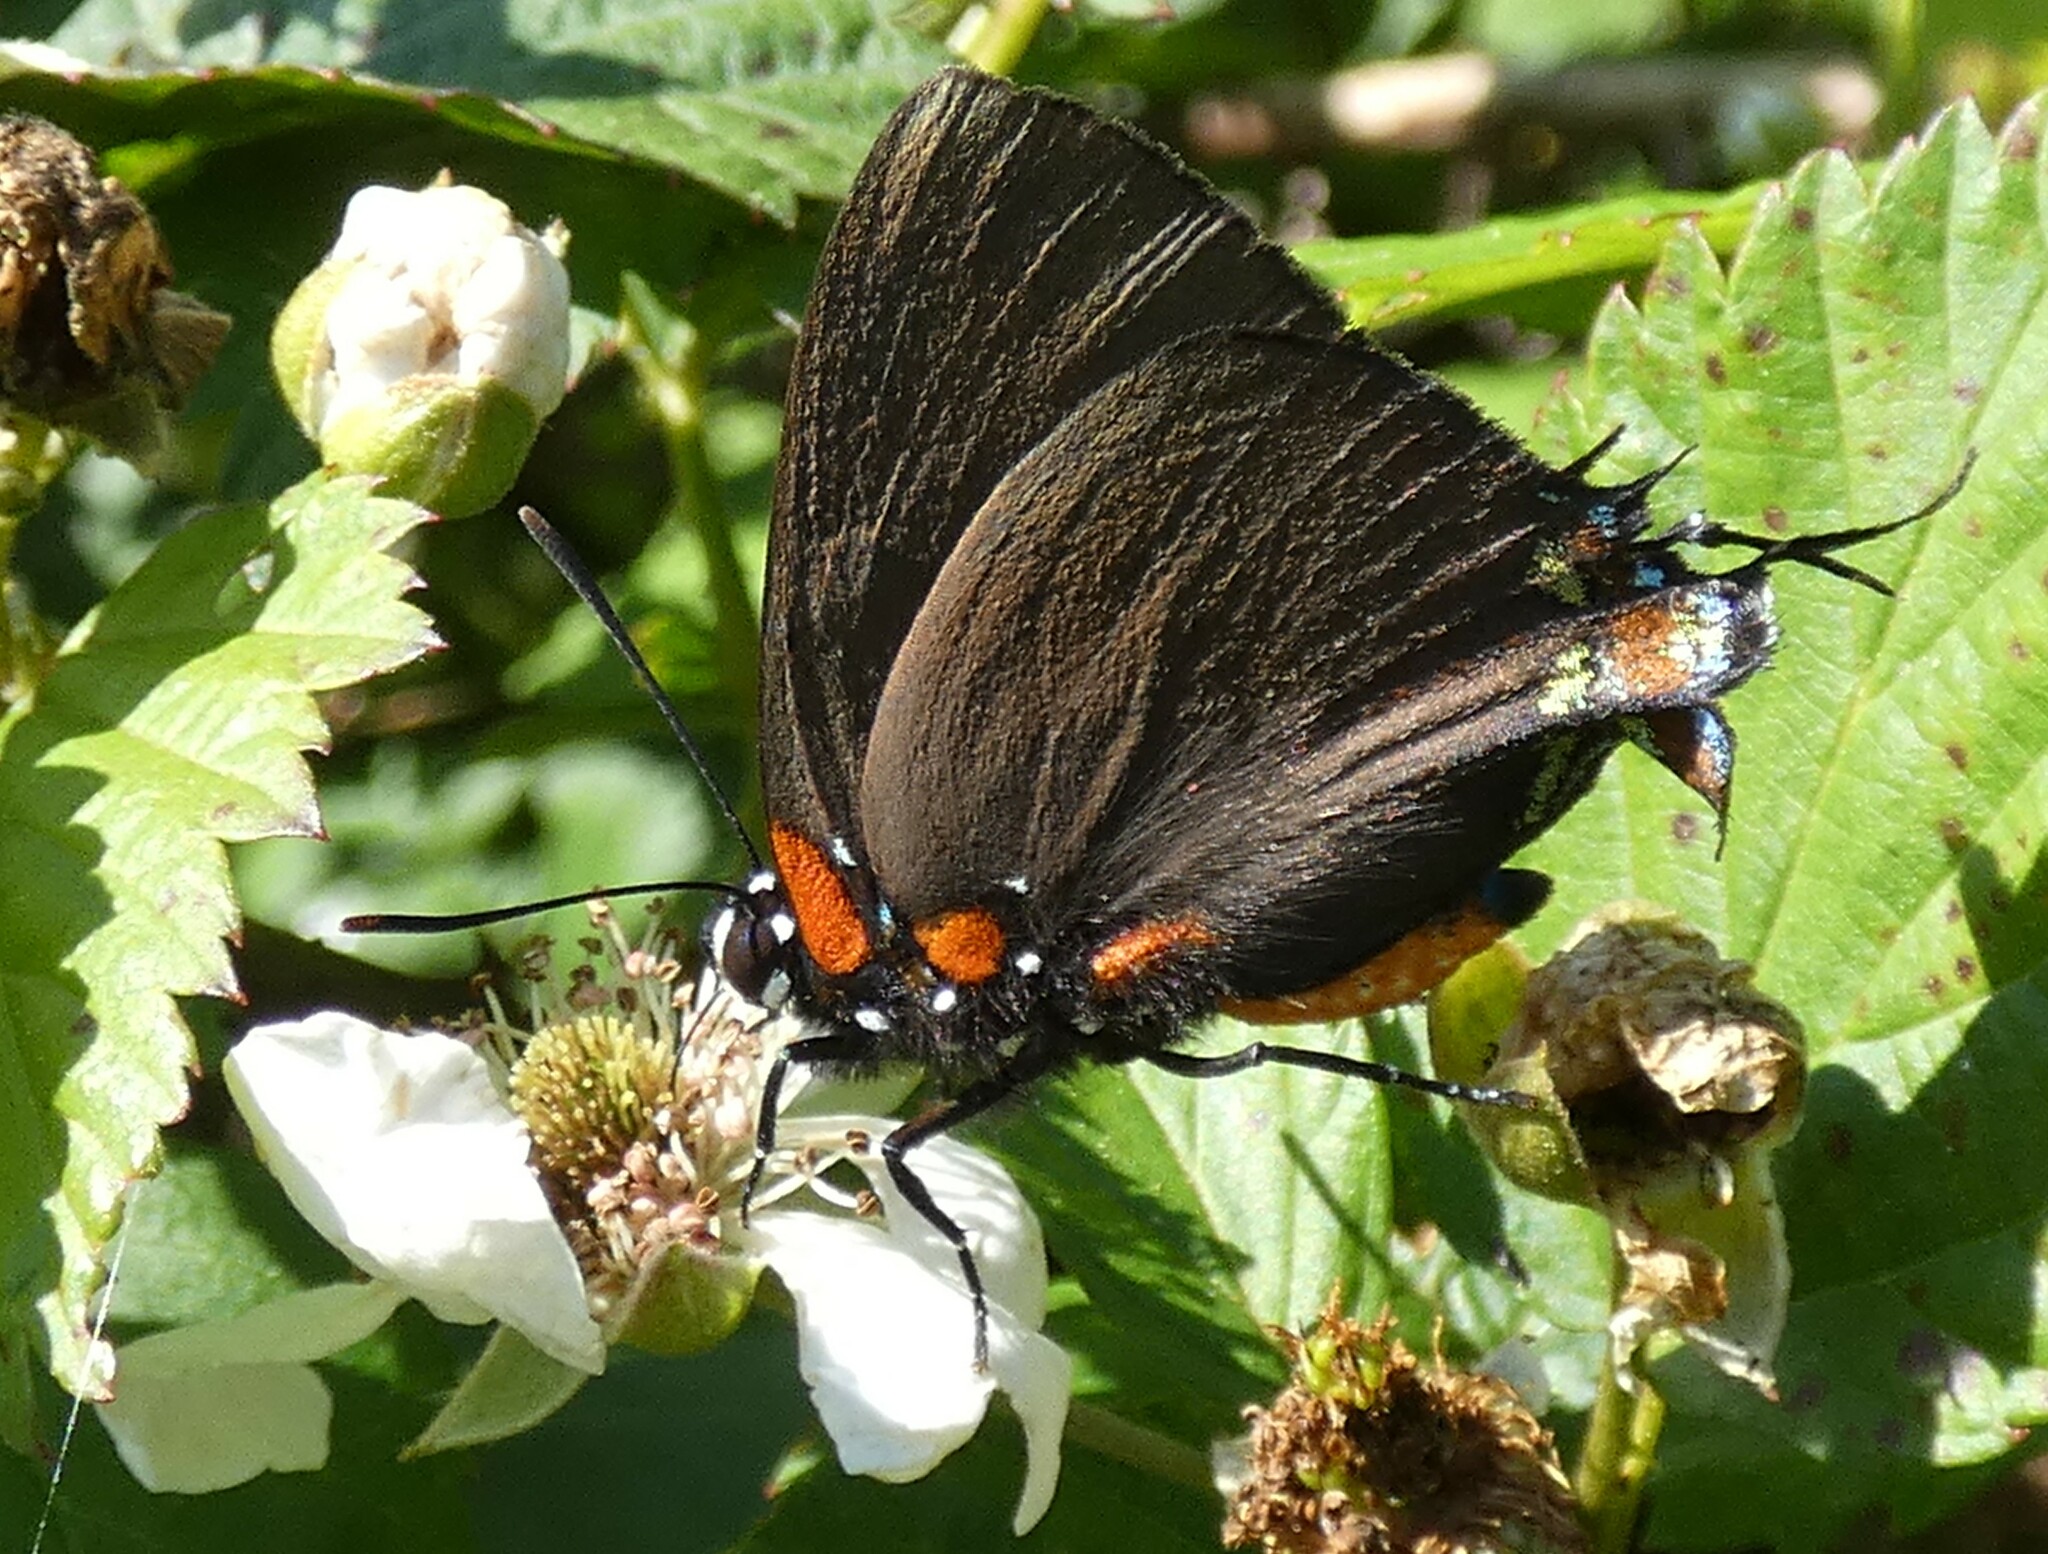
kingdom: Animalia
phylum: Arthropoda
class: Insecta
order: Lepidoptera
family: Lycaenidae
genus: Atlides
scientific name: Atlides halesus
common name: Great purple hairstreak
